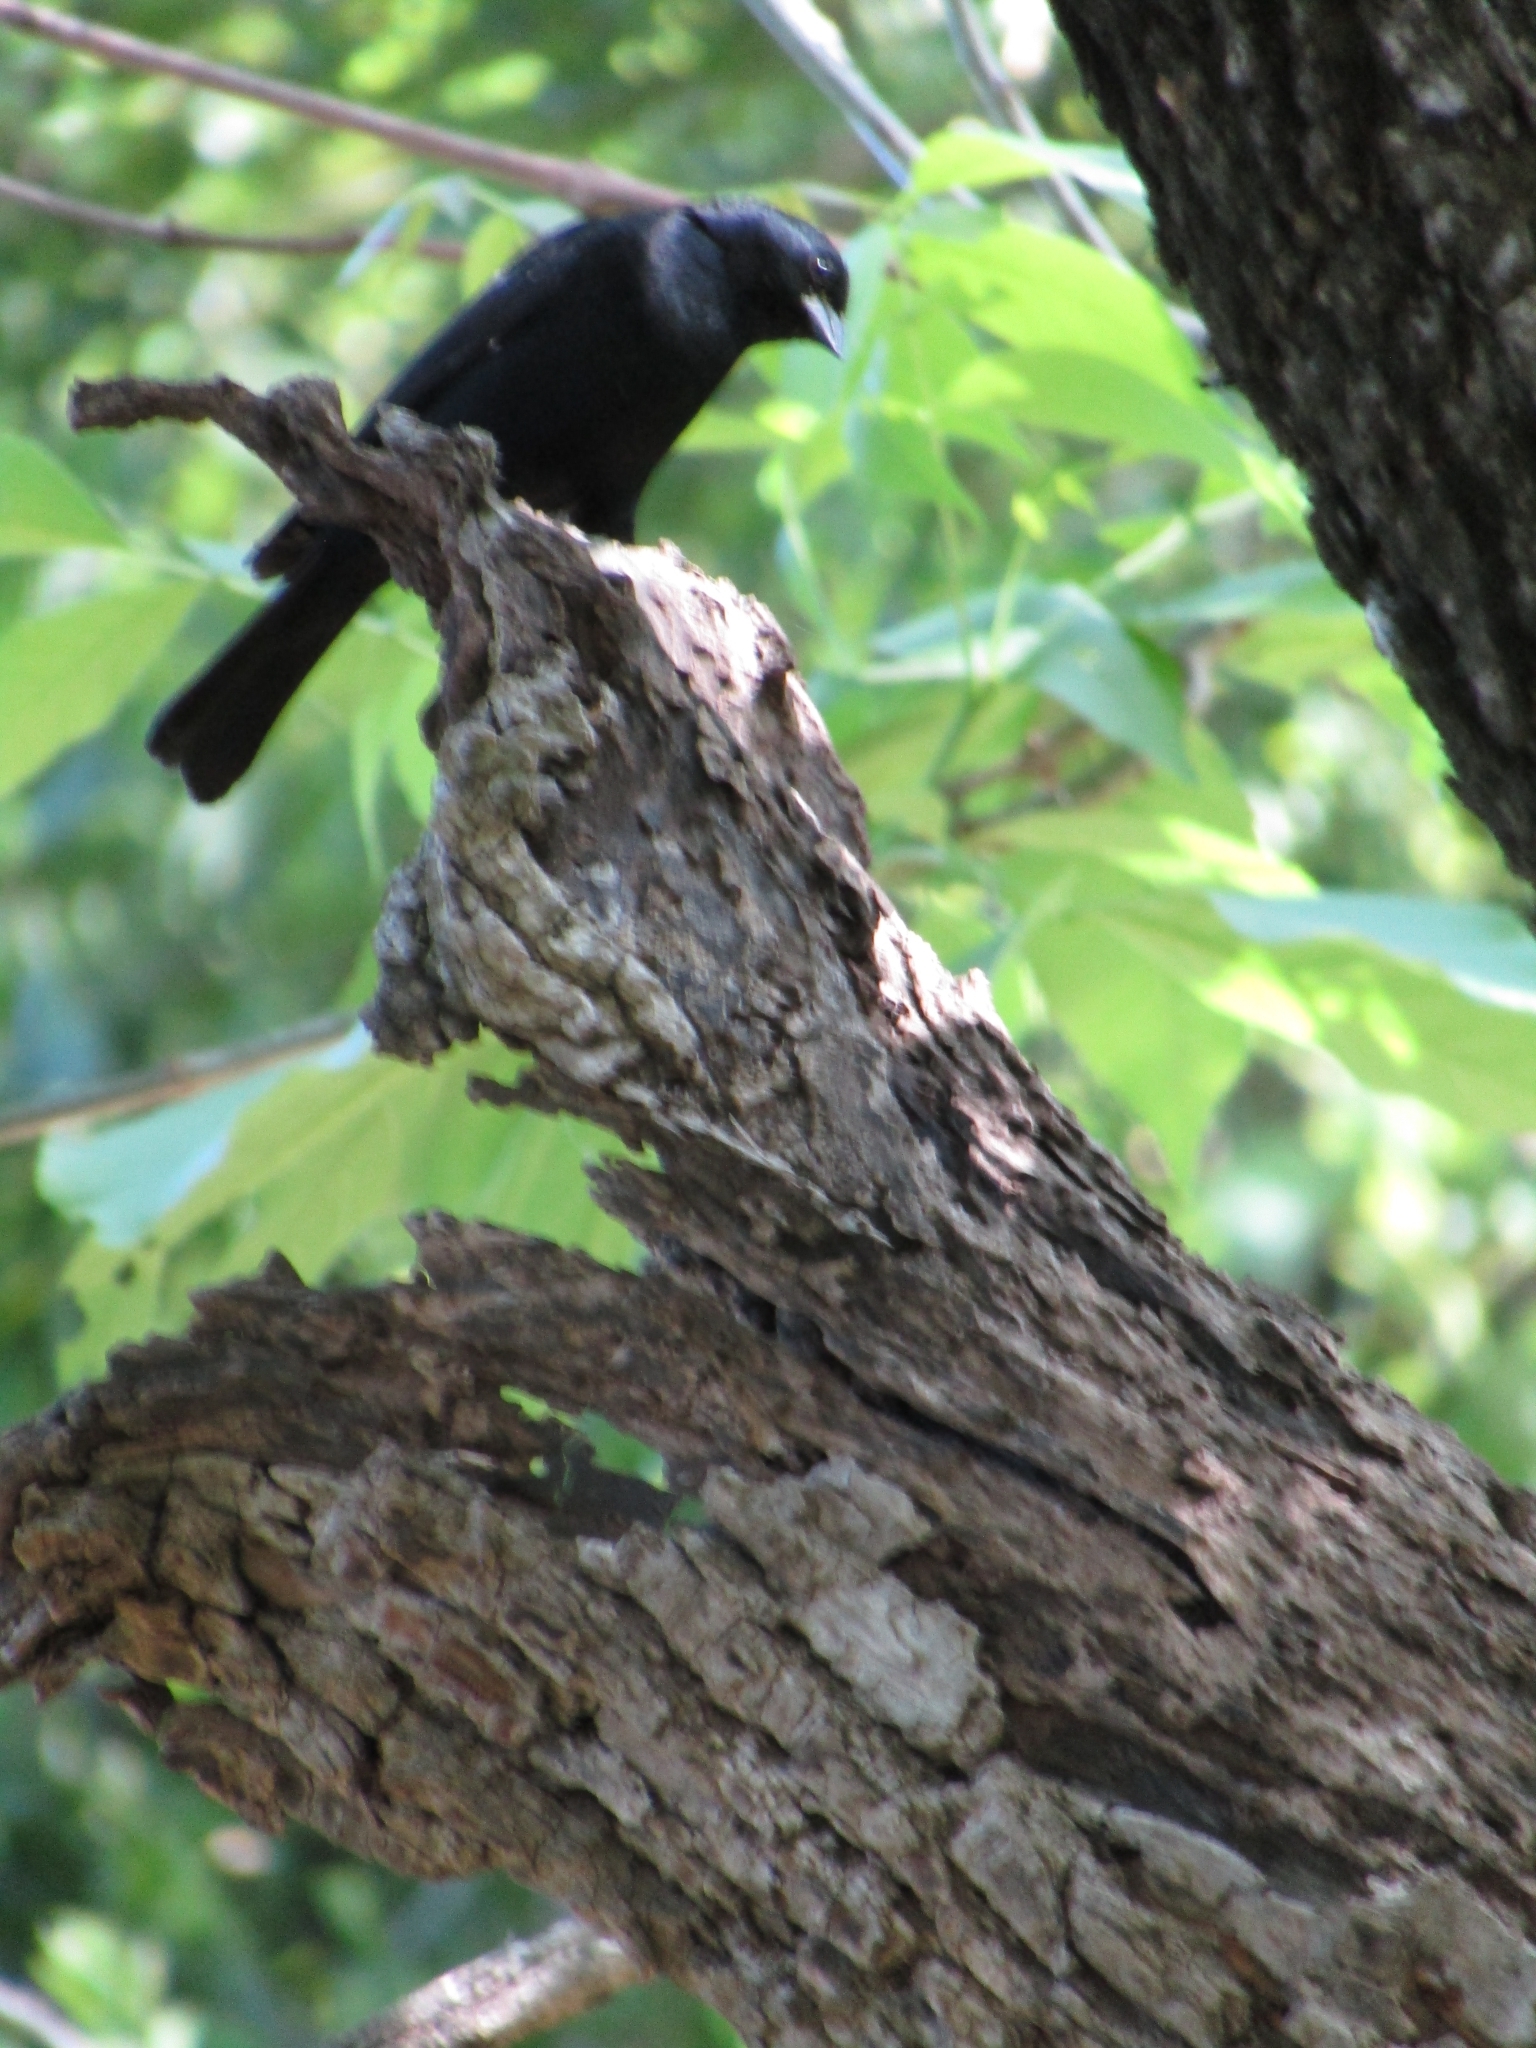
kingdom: Animalia
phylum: Chordata
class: Aves
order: Passeriformes
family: Icteridae
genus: Molothrus
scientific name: Molothrus bonariensis
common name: Shiny cowbird
